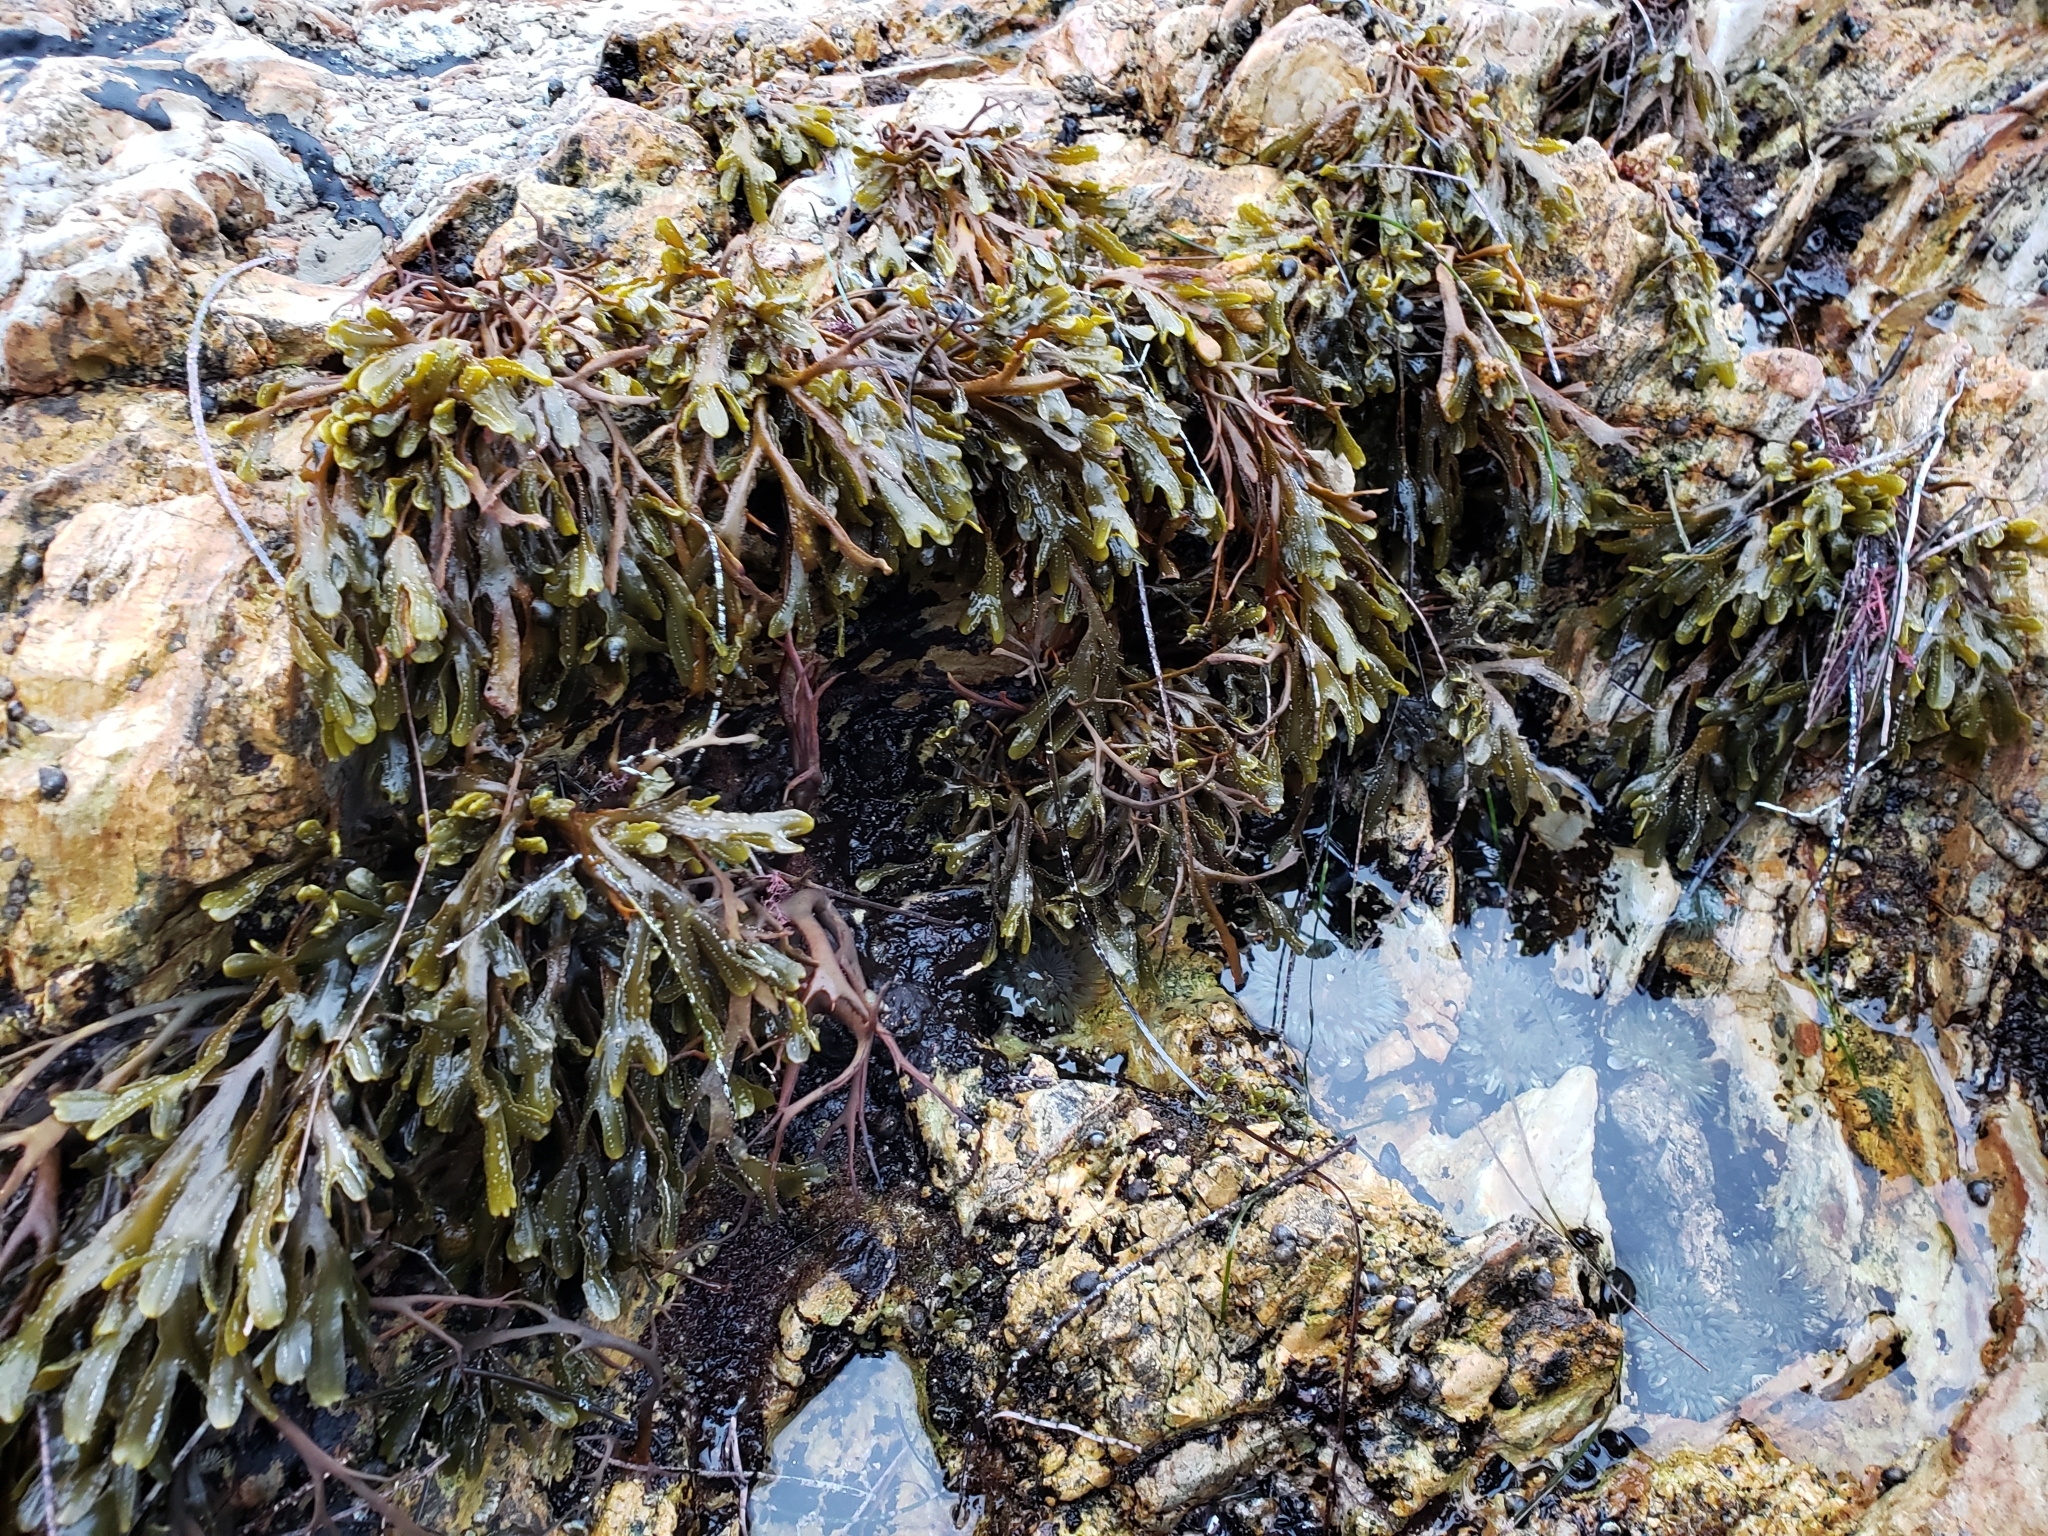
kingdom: Chromista
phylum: Ochrophyta
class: Phaeophyceae
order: Fucales
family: Fucaceae
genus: Pelvetiopsis
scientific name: Pelvetiopsis
